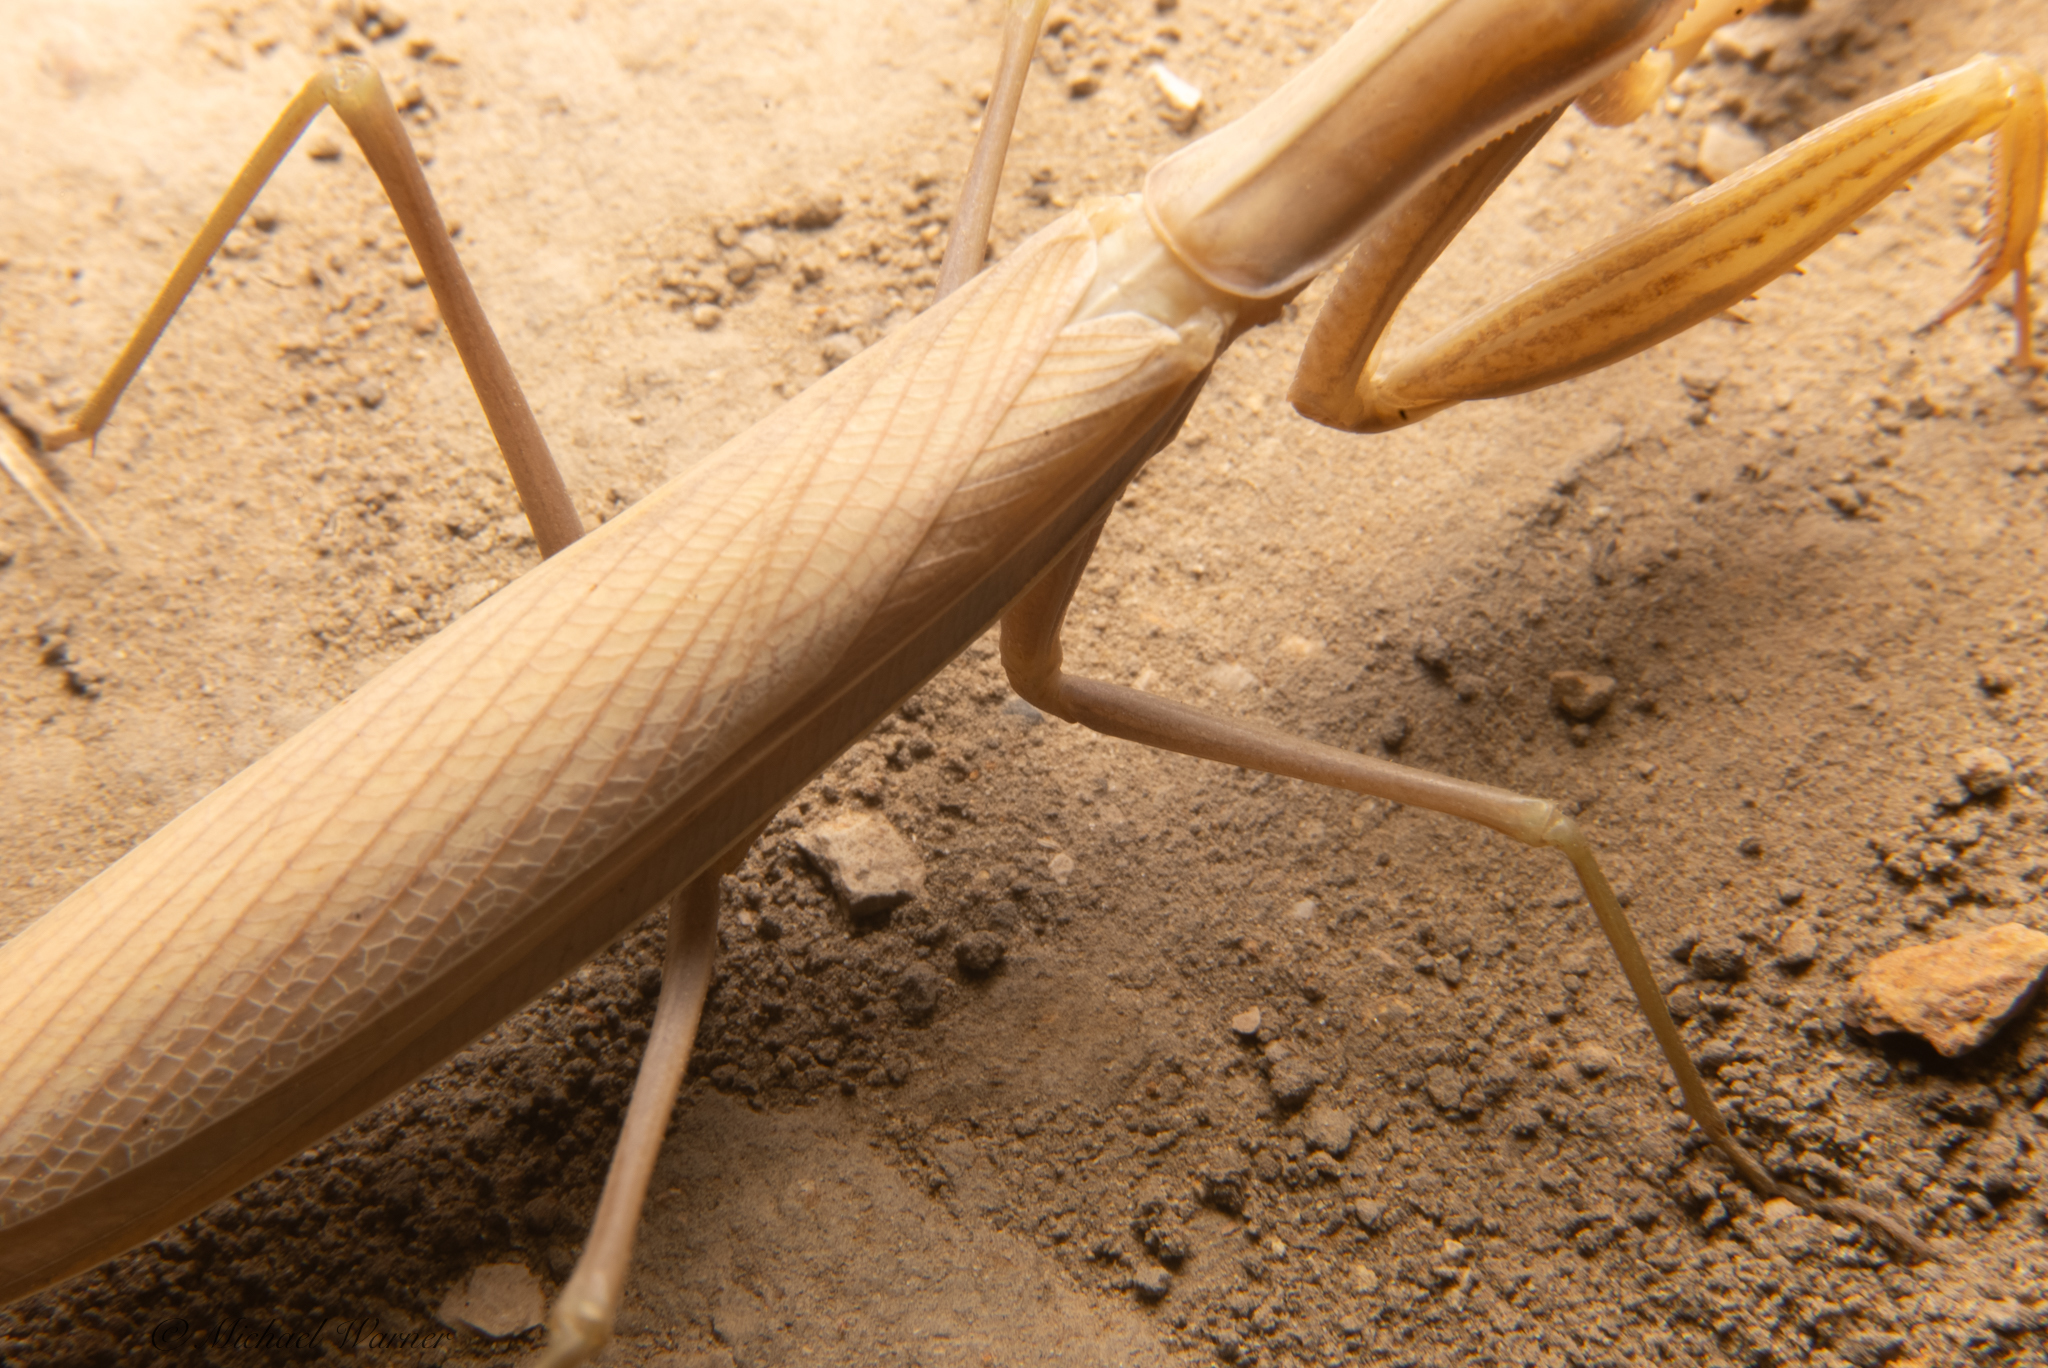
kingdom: Animalia
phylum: Arthropoda
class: Insecta
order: Mantodea
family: Mantidae
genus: Mantis
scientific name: Mantis religiosa
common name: Praying mantis
